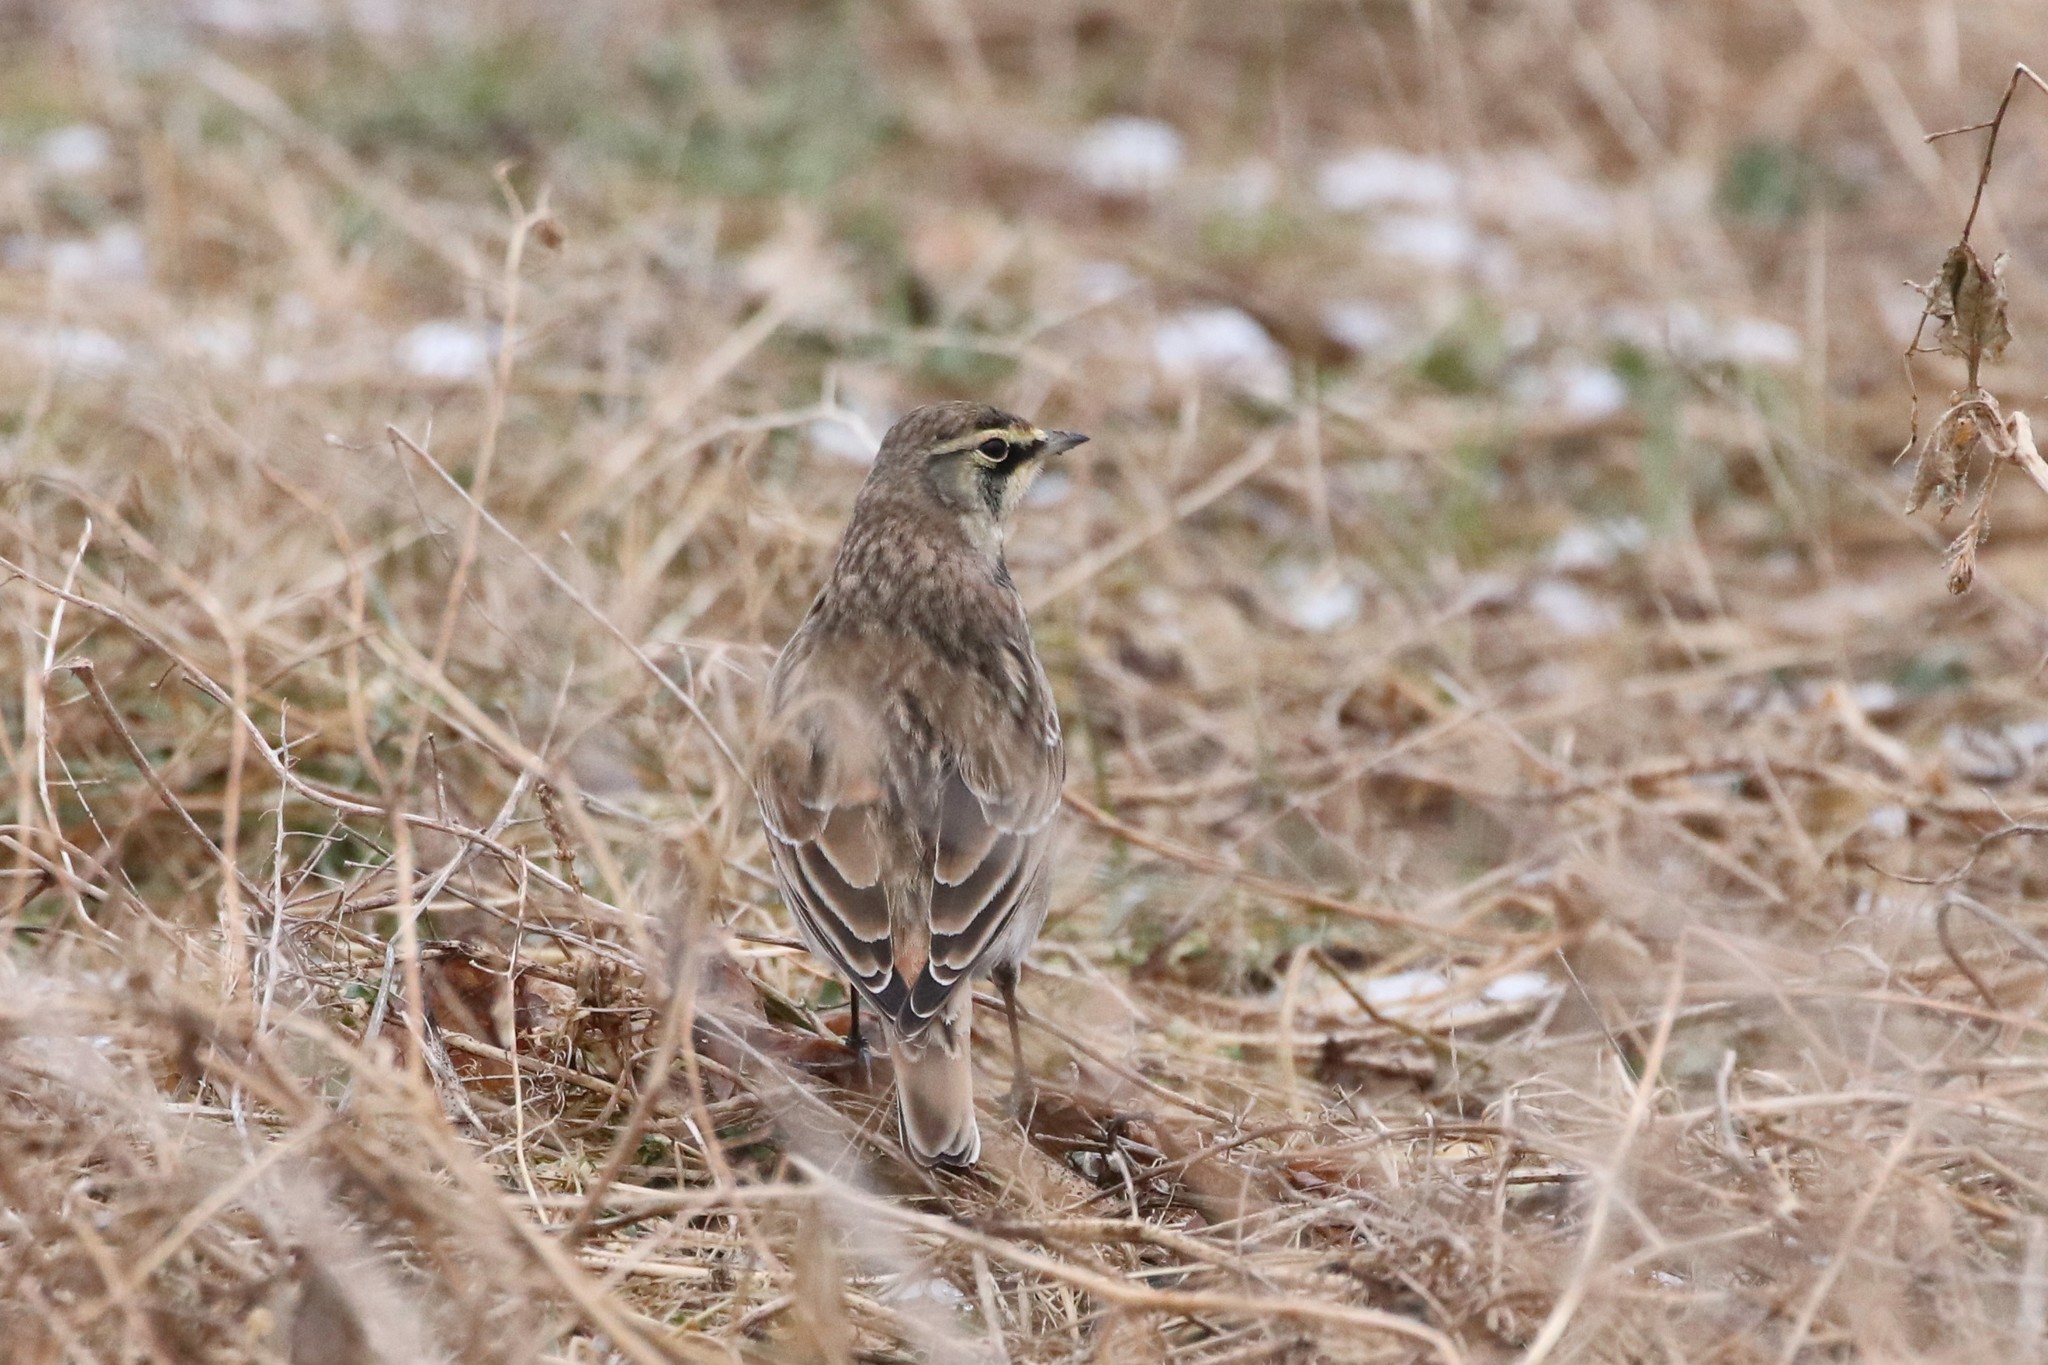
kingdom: Animalia
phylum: Chordata
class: Aves
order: Passeriformes
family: Alaudidae
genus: Eremophila
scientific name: Eremophila alpestris
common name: Horned lark
